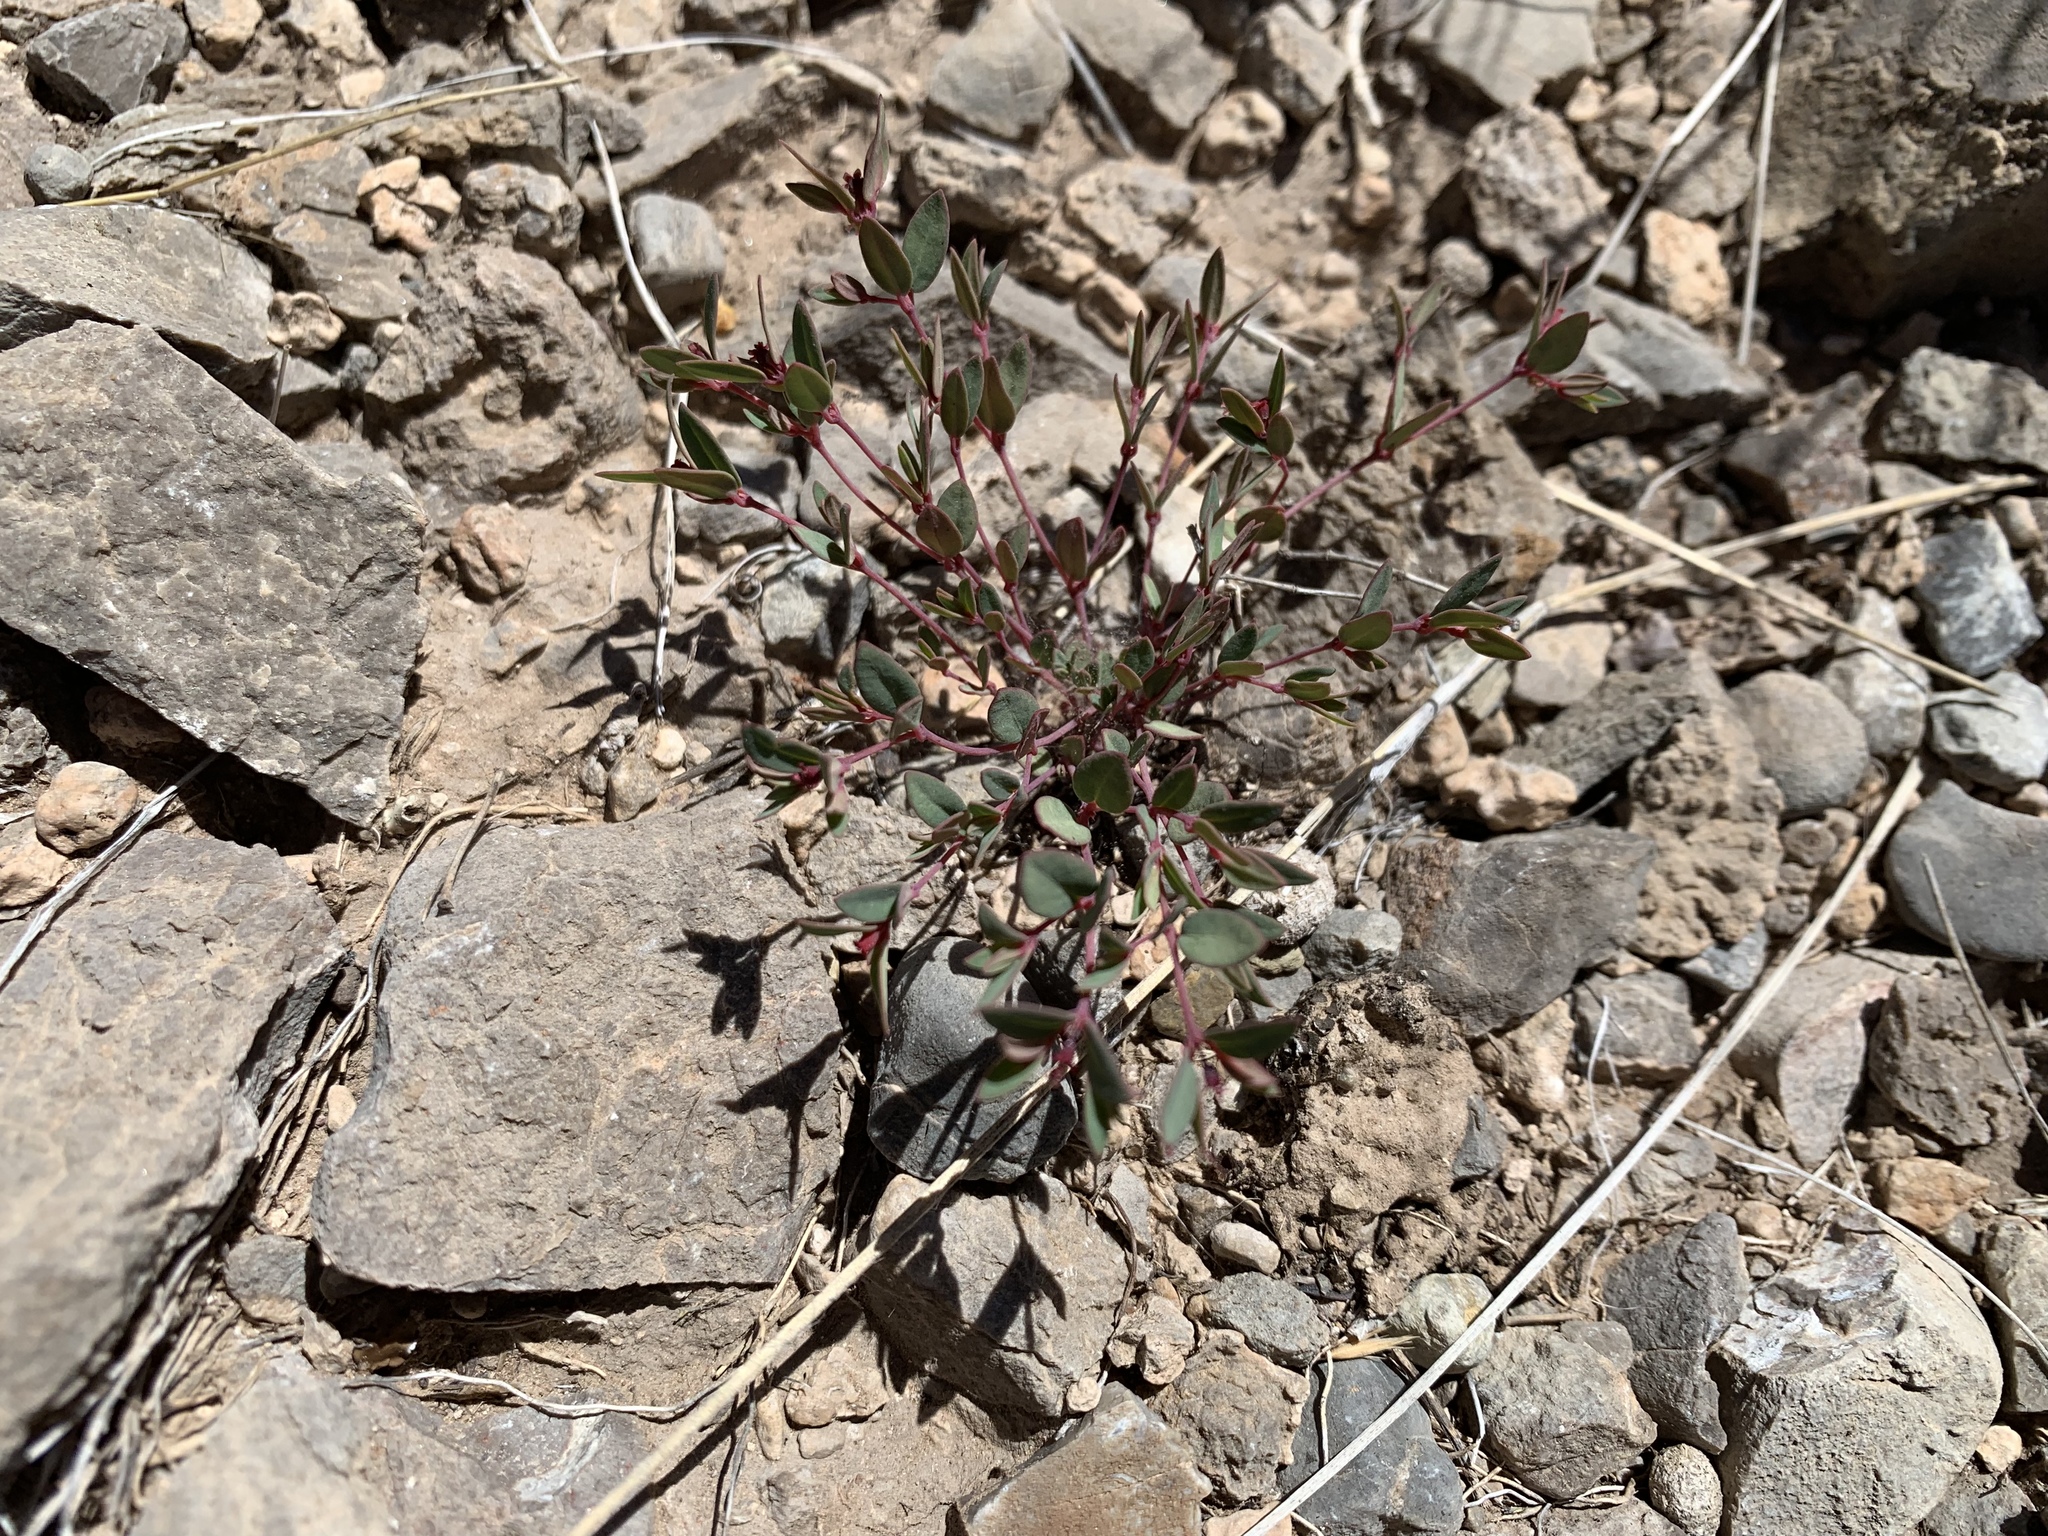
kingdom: Plantae
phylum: Tracheophyta
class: Magnoliopsida
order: Malpighiales
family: Euphorbiaceae
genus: Euphorbia
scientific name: Euphorbia fendleri
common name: Fendler's euphorbia
